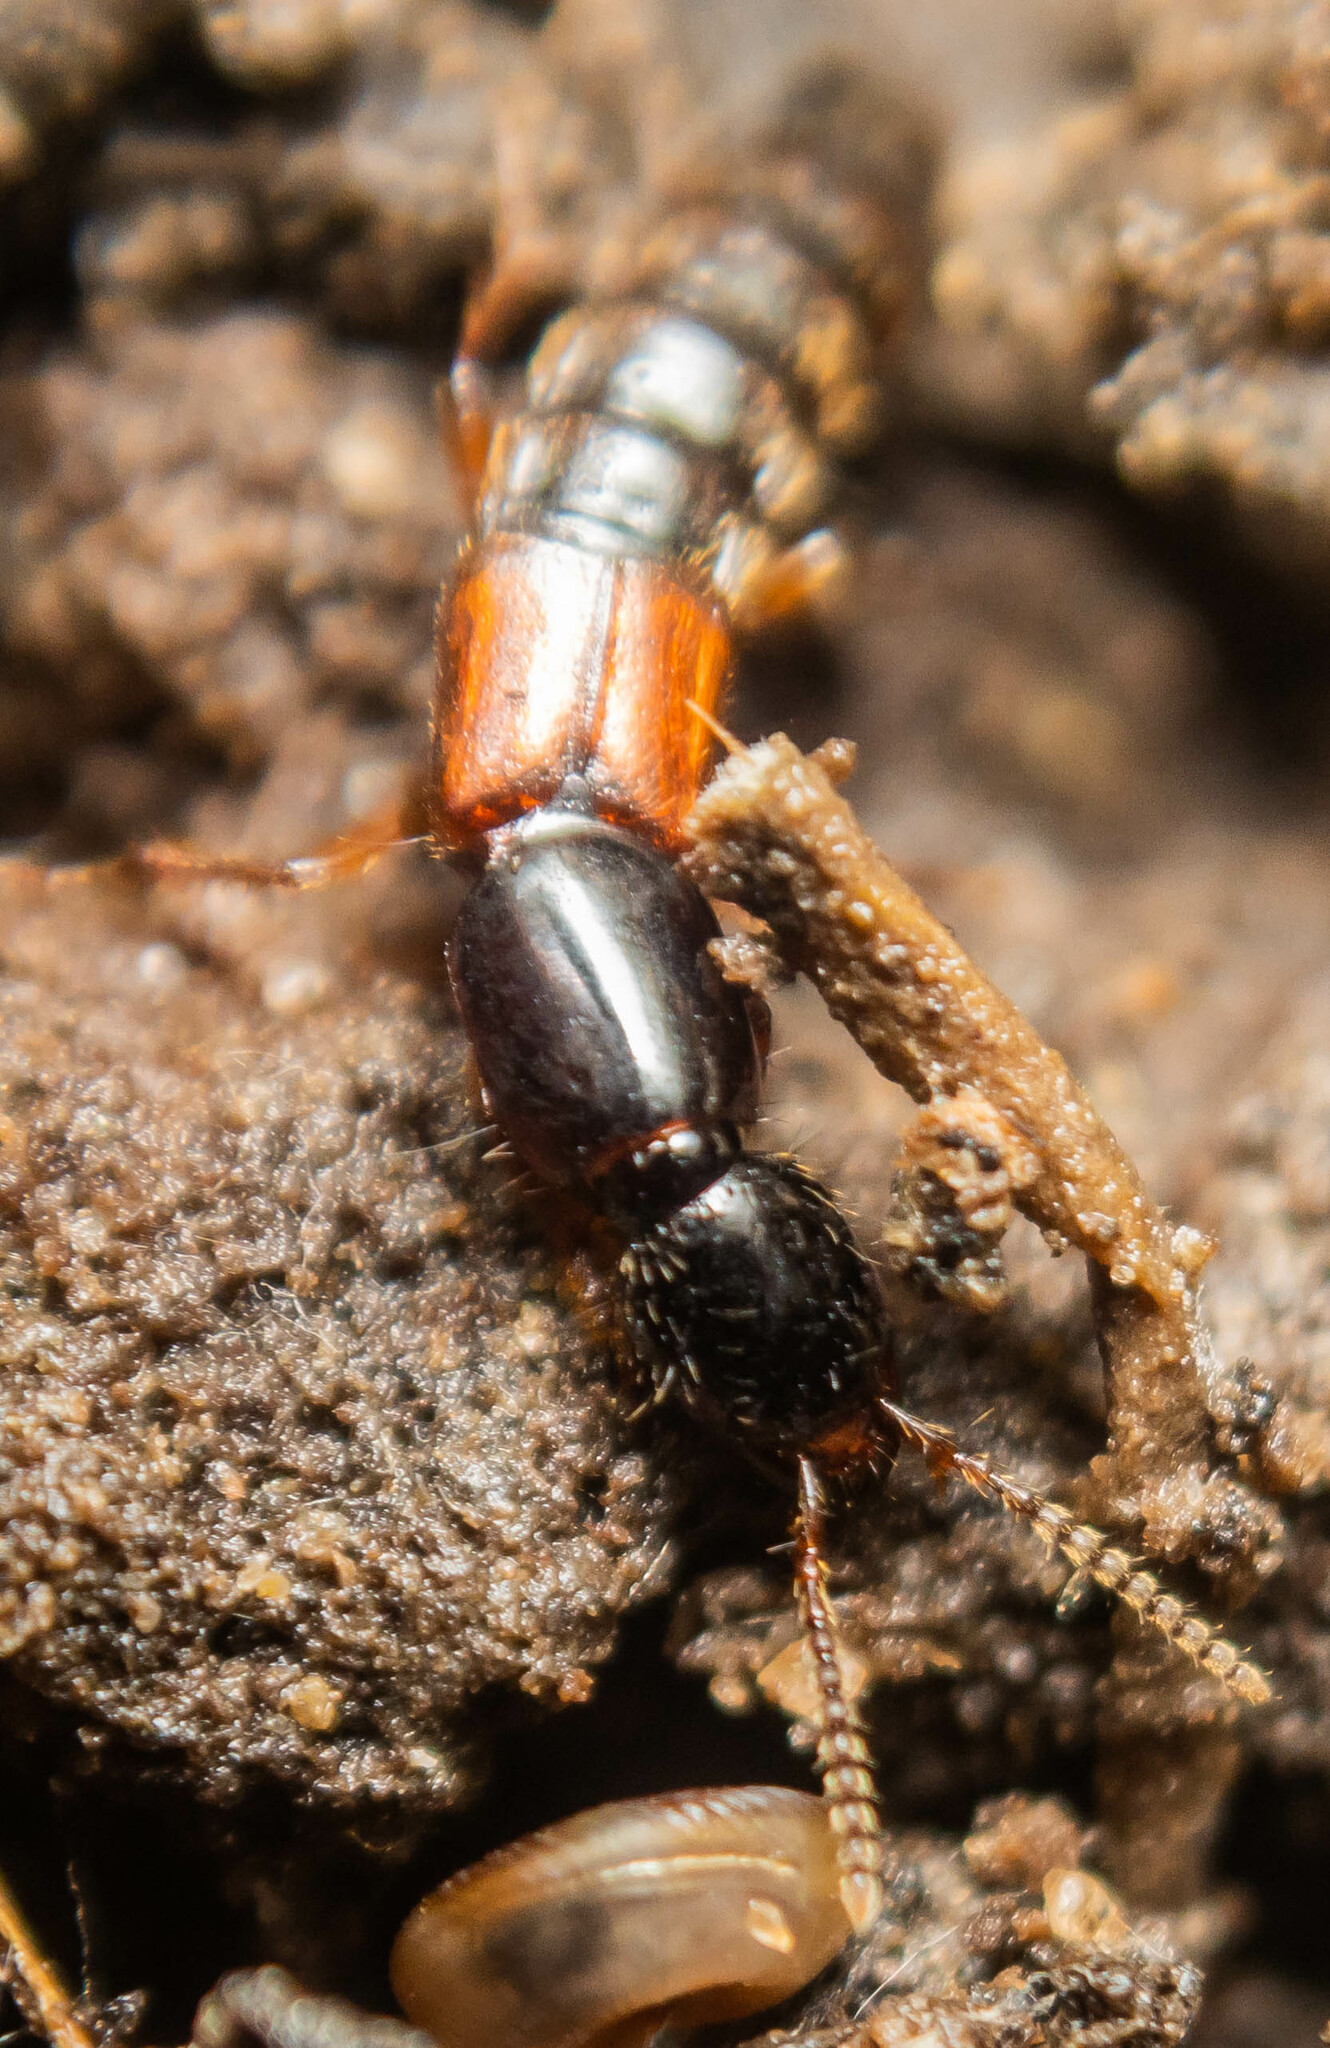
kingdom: Animalia
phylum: Arthropoda
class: Insecta
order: Coleoptera
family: Staphylinidae
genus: Othius
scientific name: Othius punctulatus
